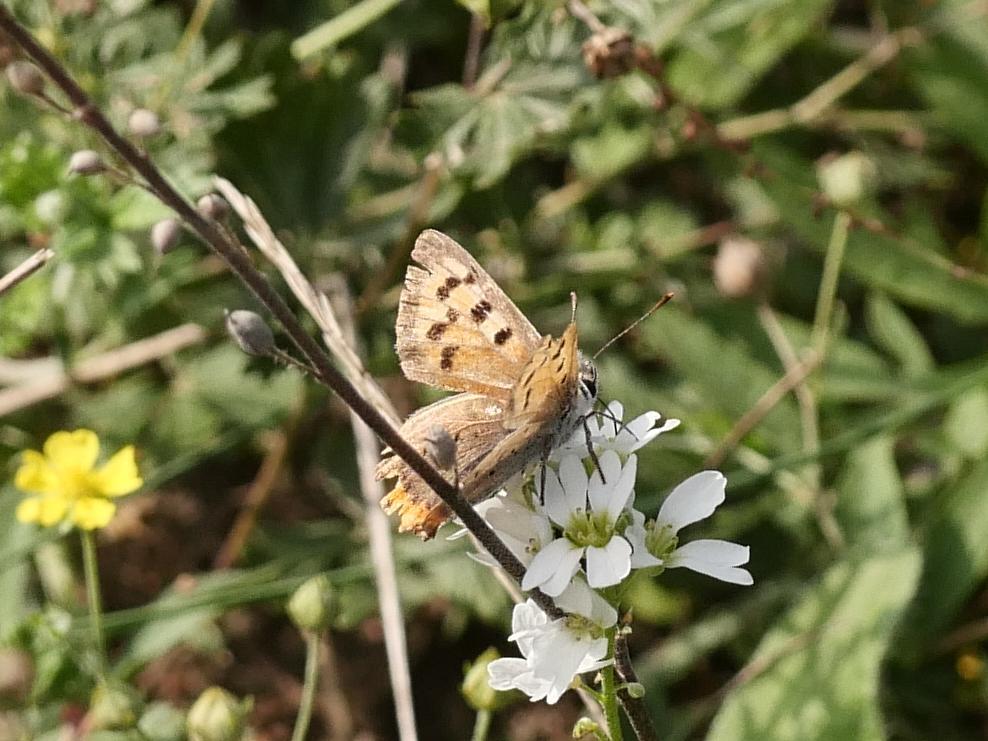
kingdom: Animalia
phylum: Arthropoda
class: Insecta
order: Lepidoptera
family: Lycaenidae
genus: Lycaena
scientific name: Lycaena phlaeas
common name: Small copper
